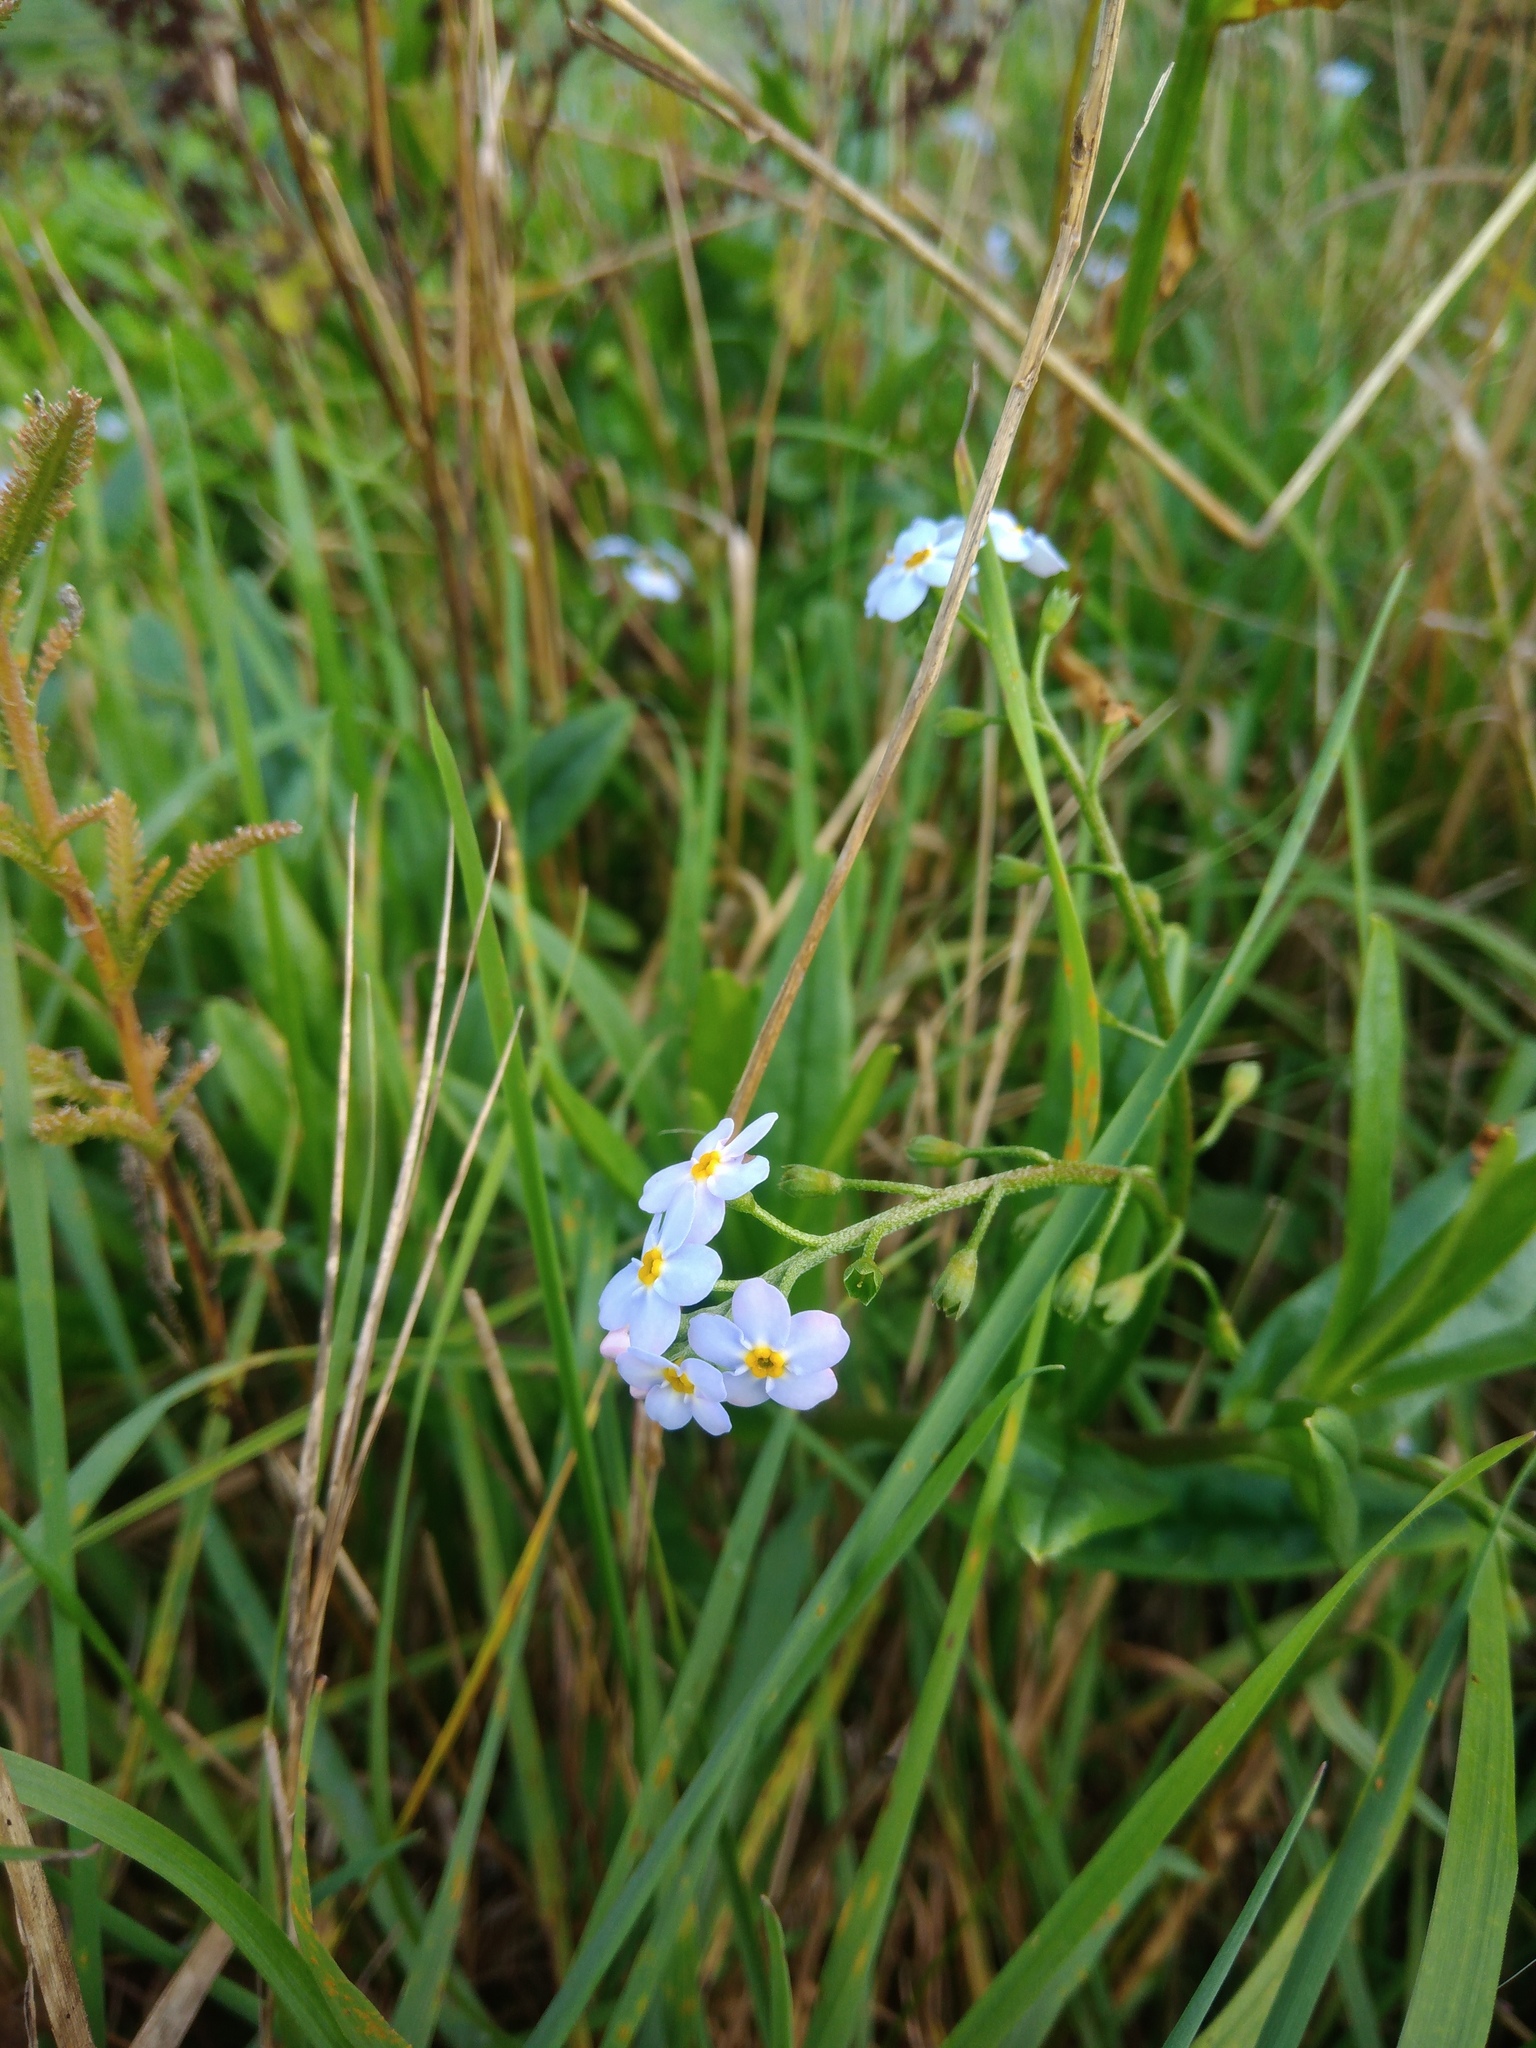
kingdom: Plantae
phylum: Tracheophyta
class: Magnoliopsida
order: Boraginales
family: Boraginaceae
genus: Myosotis
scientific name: Myosotis scorpioides
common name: Water forget-me-not
